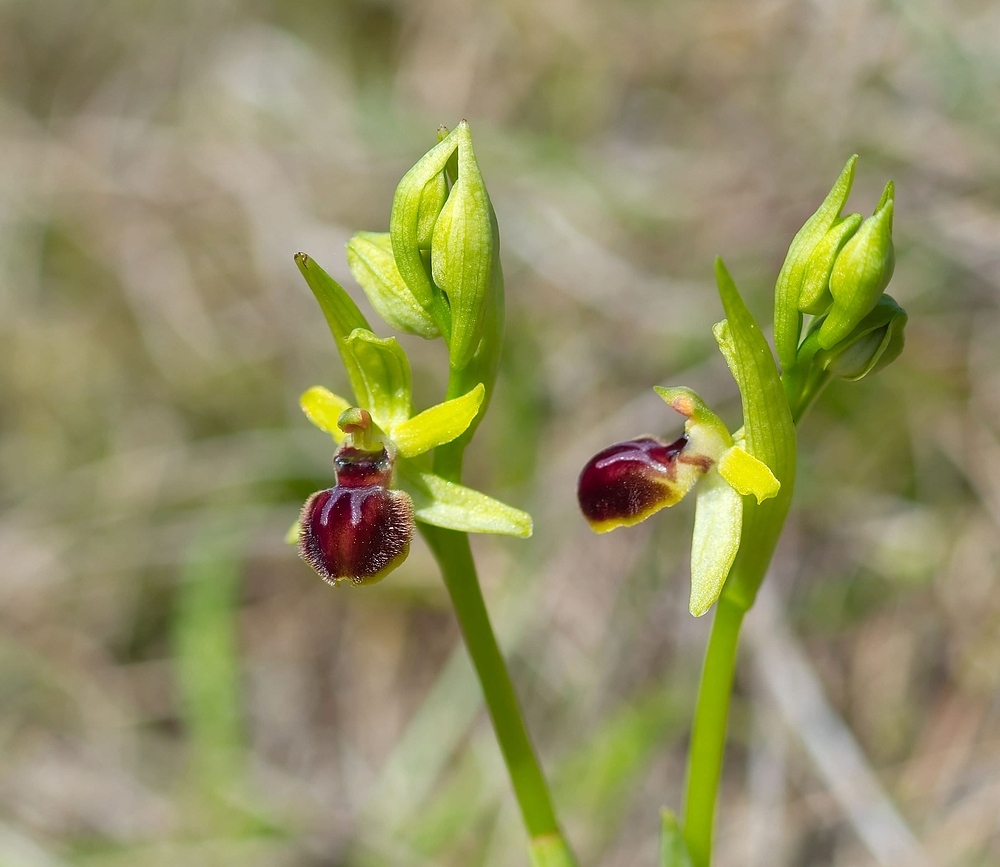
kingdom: Plantae
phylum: Tracheophyta
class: Liliopsida
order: Asparagales
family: Orchidaceae
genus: Ophrys
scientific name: Ophrys araneola
